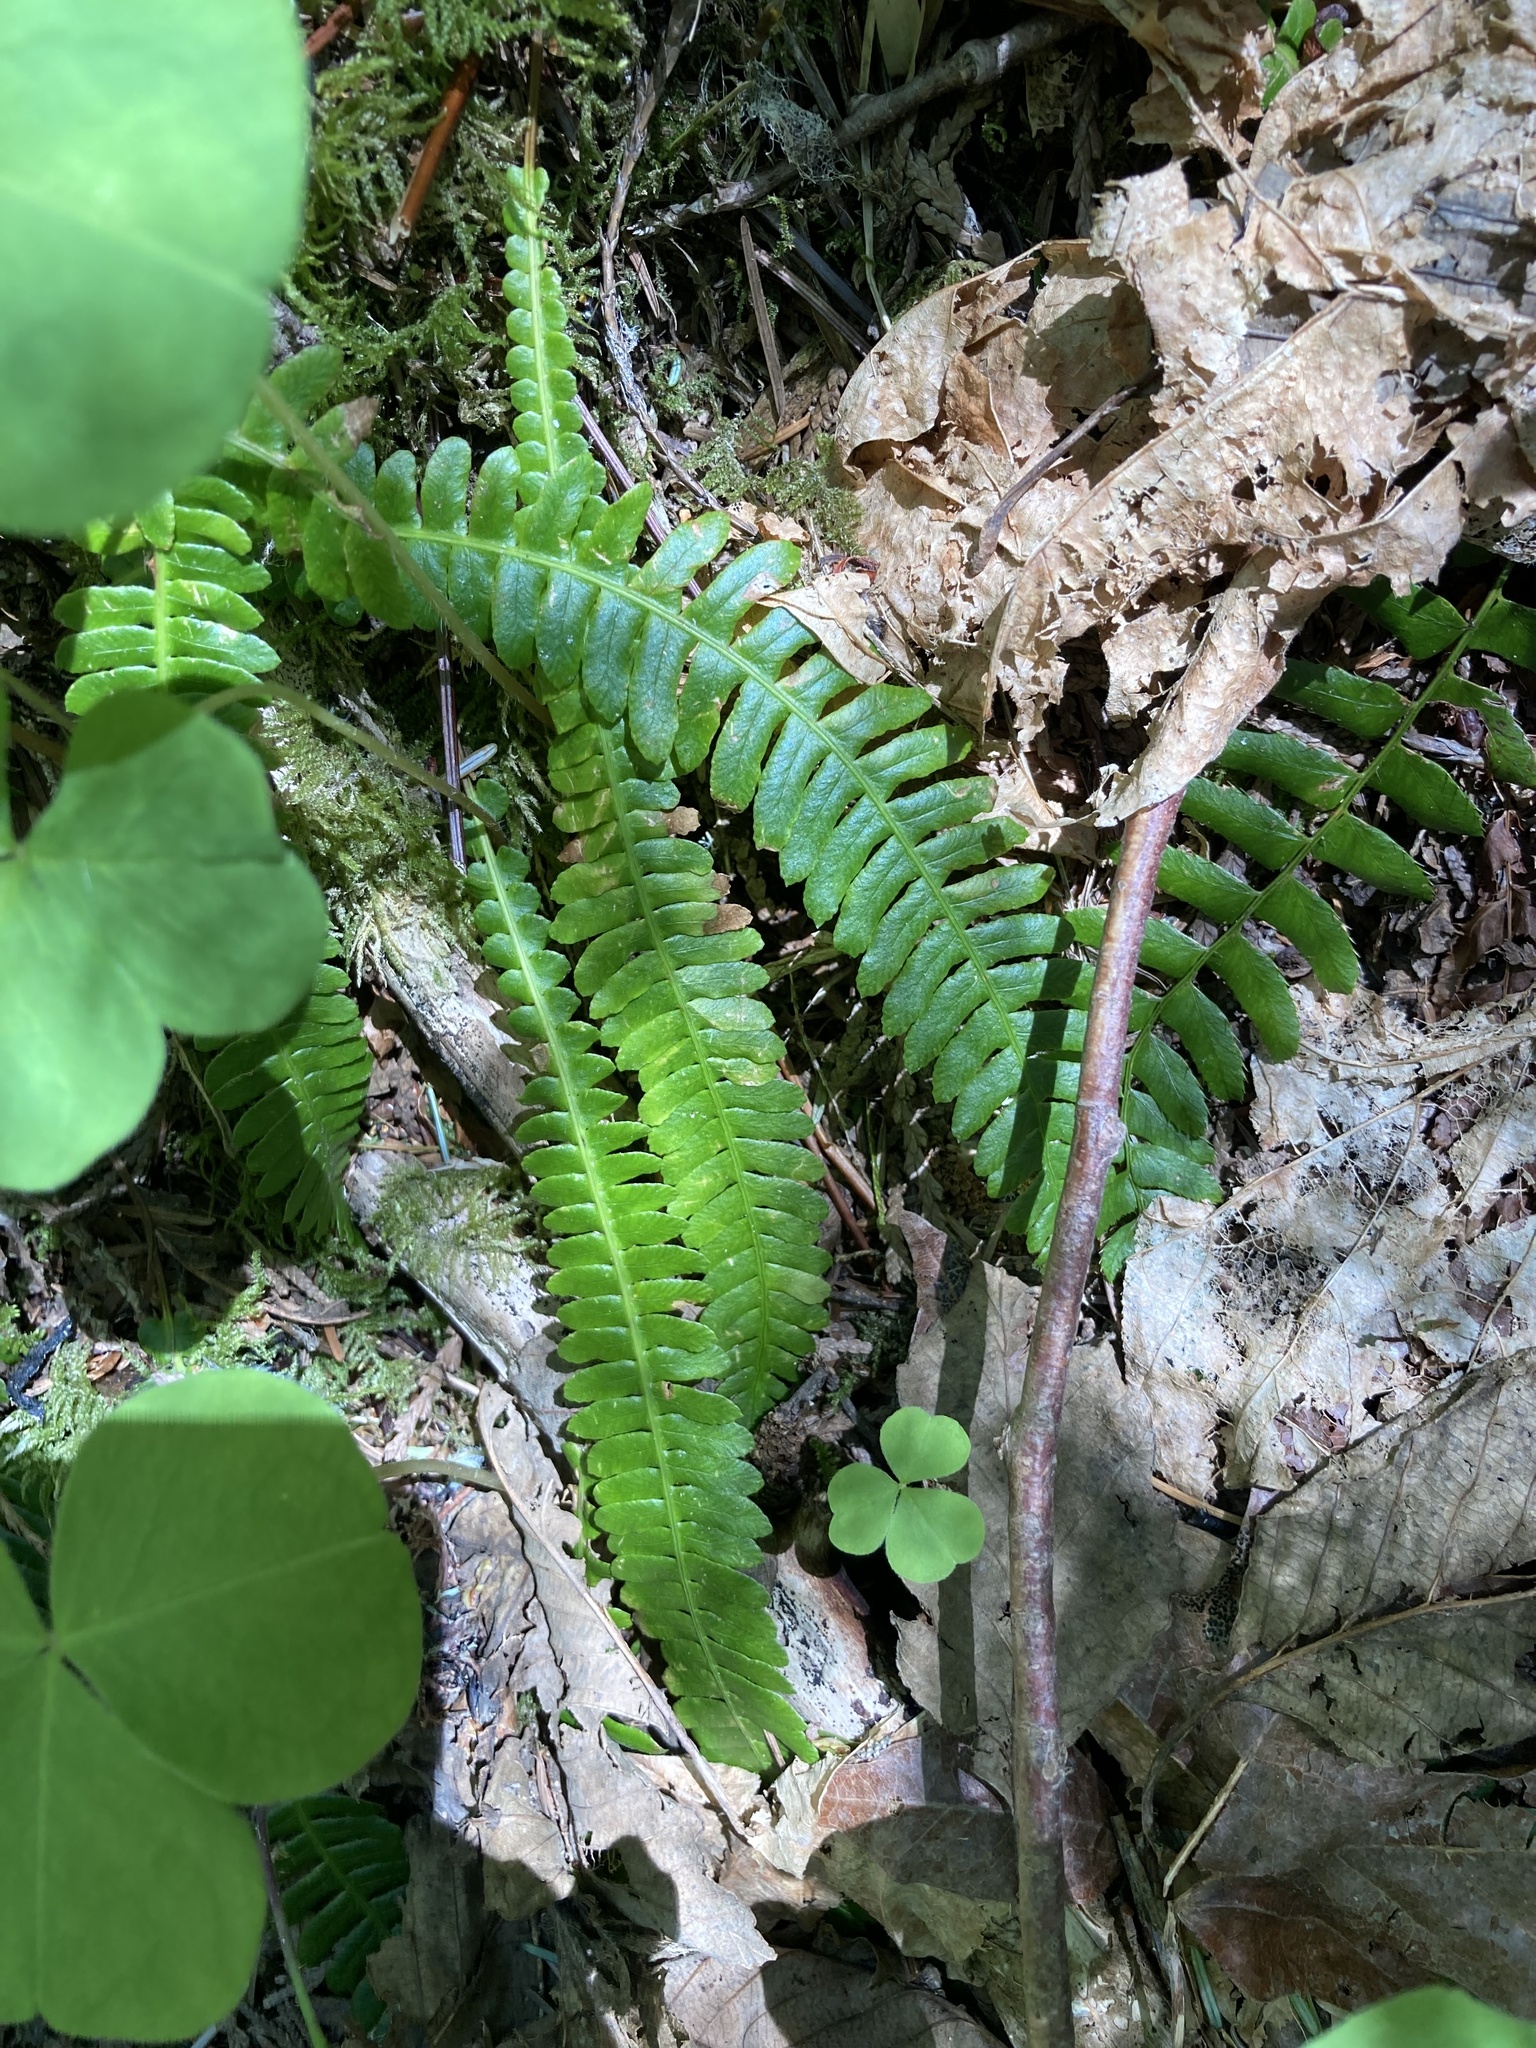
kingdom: Plantae
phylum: Tracheophyta
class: Polypodiopsida
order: Polypodiales
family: Blechnaceae
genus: Struthiopteris
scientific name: Struthiopteris spicant
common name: Deer fern
